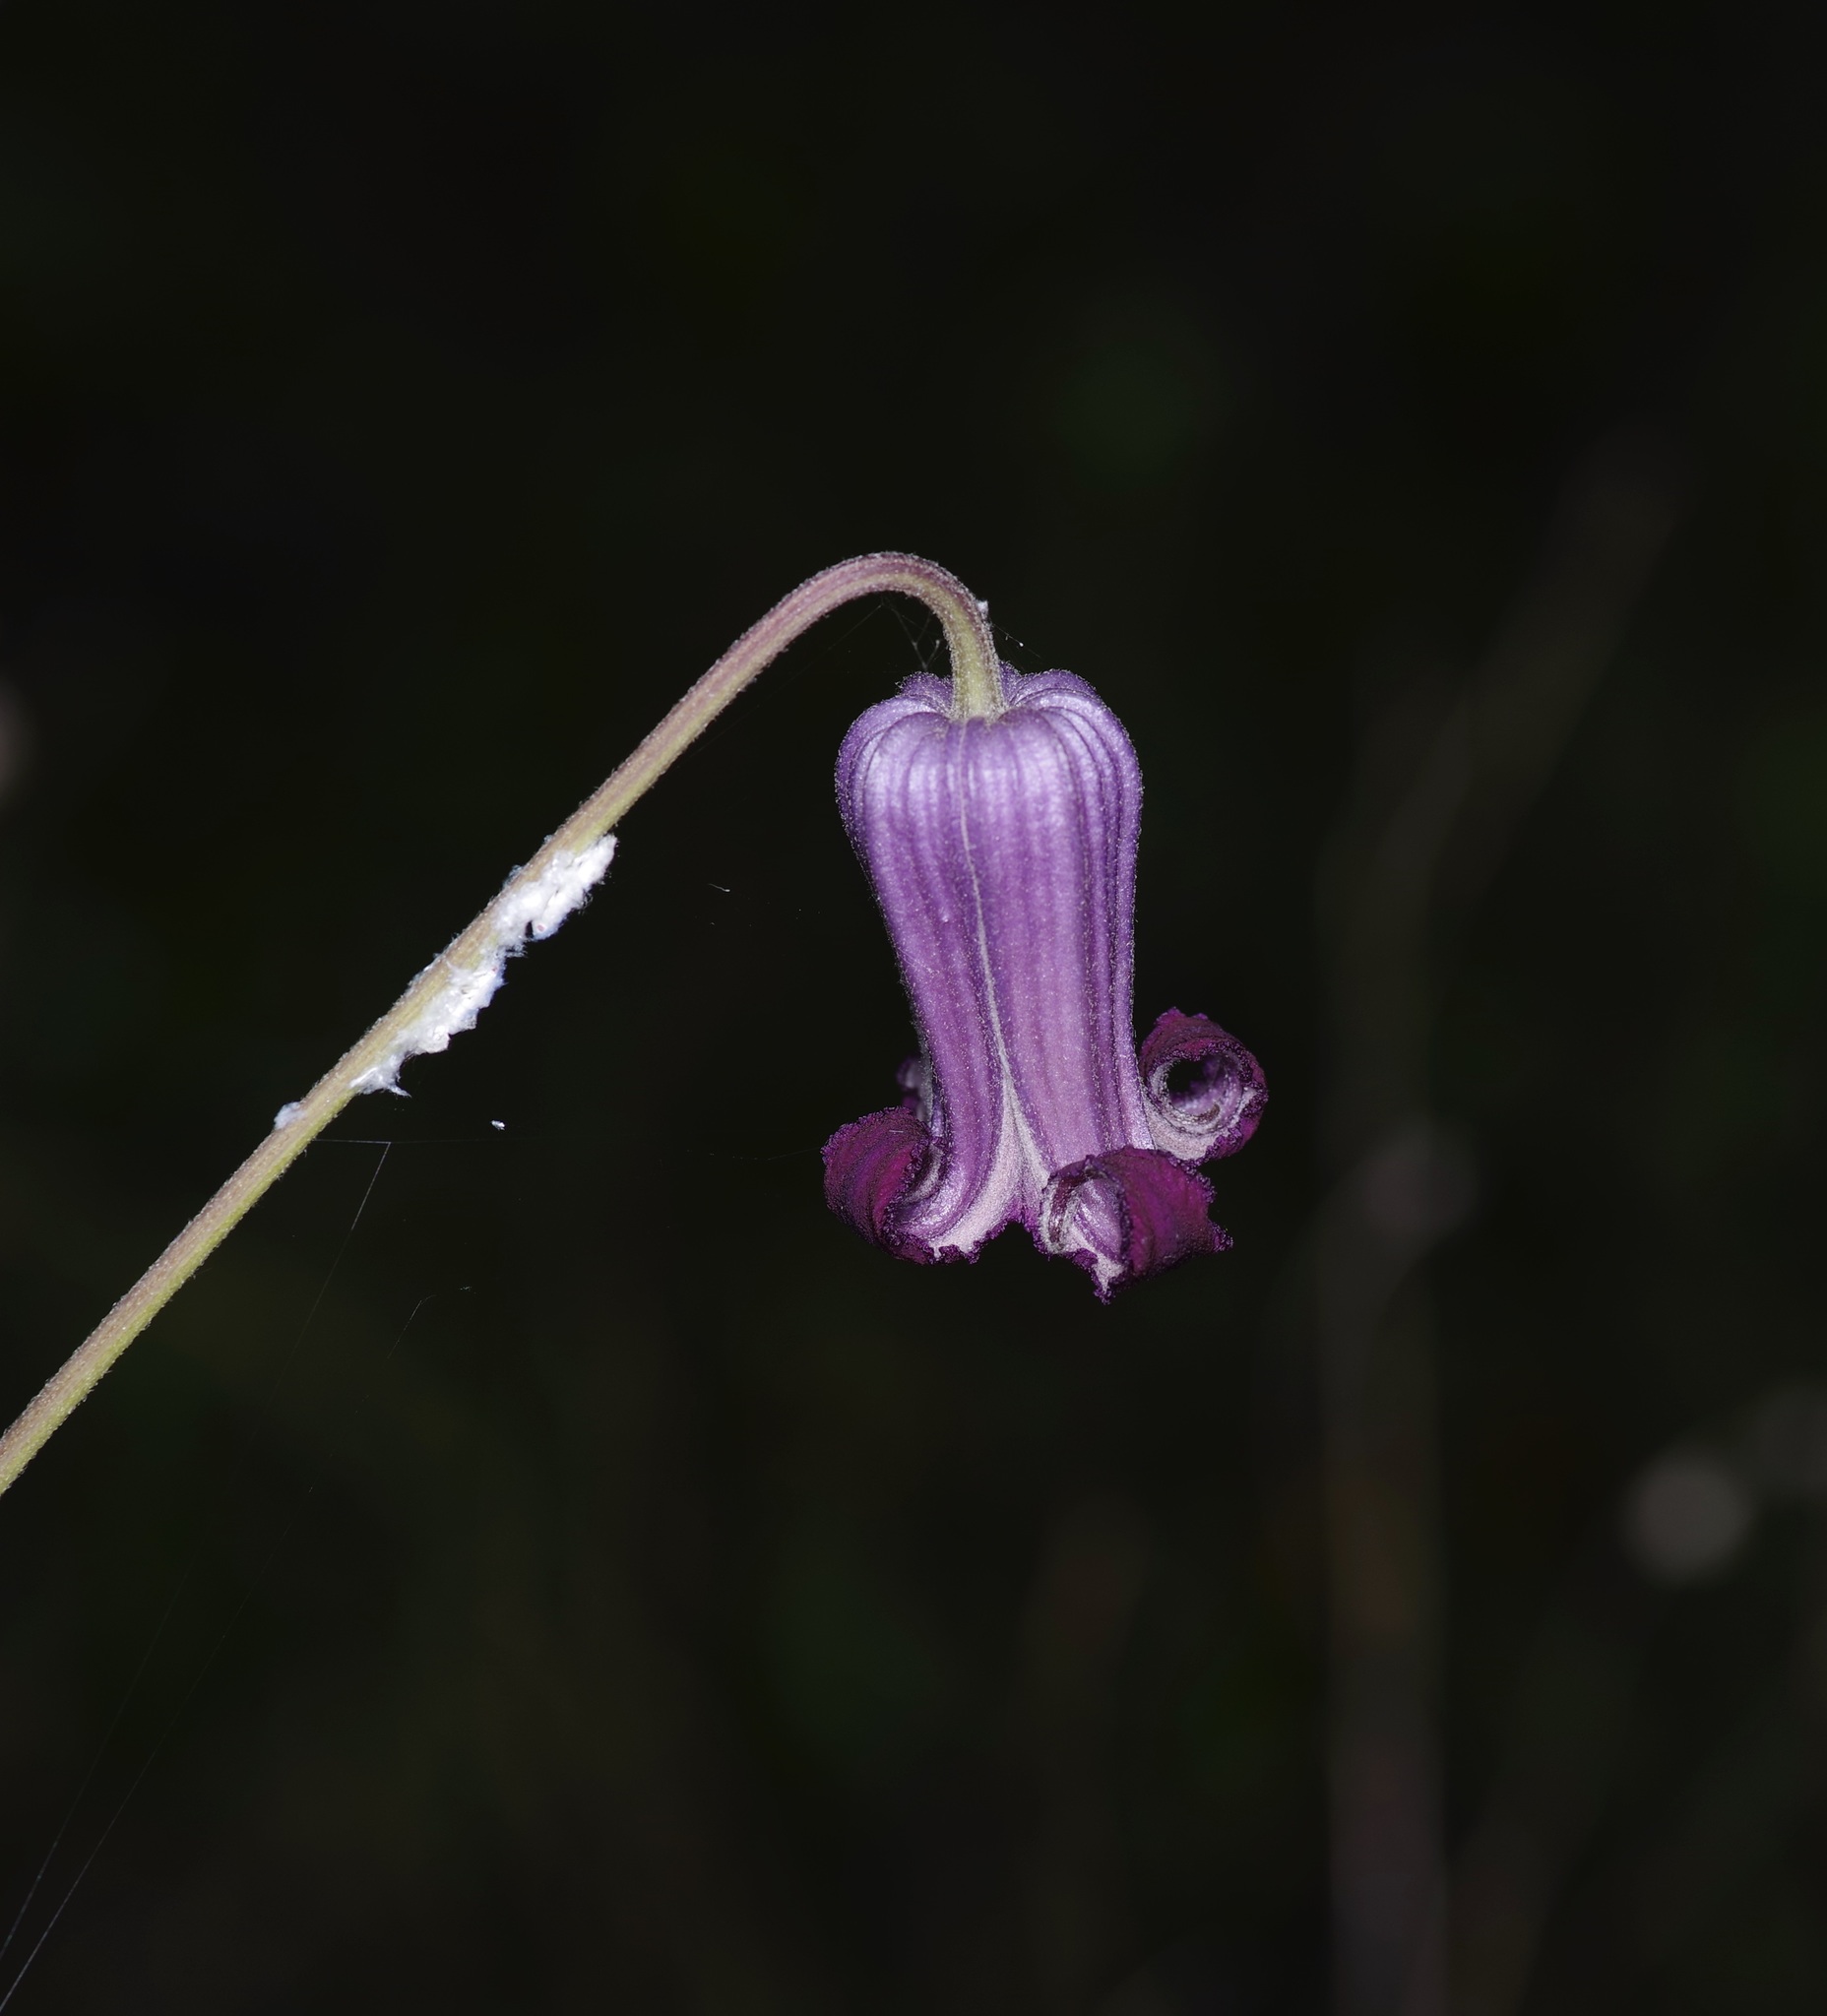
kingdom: Plantae
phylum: Tracheophyta
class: Magnoliopsida
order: Ranunculales
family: Ranunculaceae
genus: Clematis
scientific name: Clematis pitcheri
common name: Bellflower clematis
